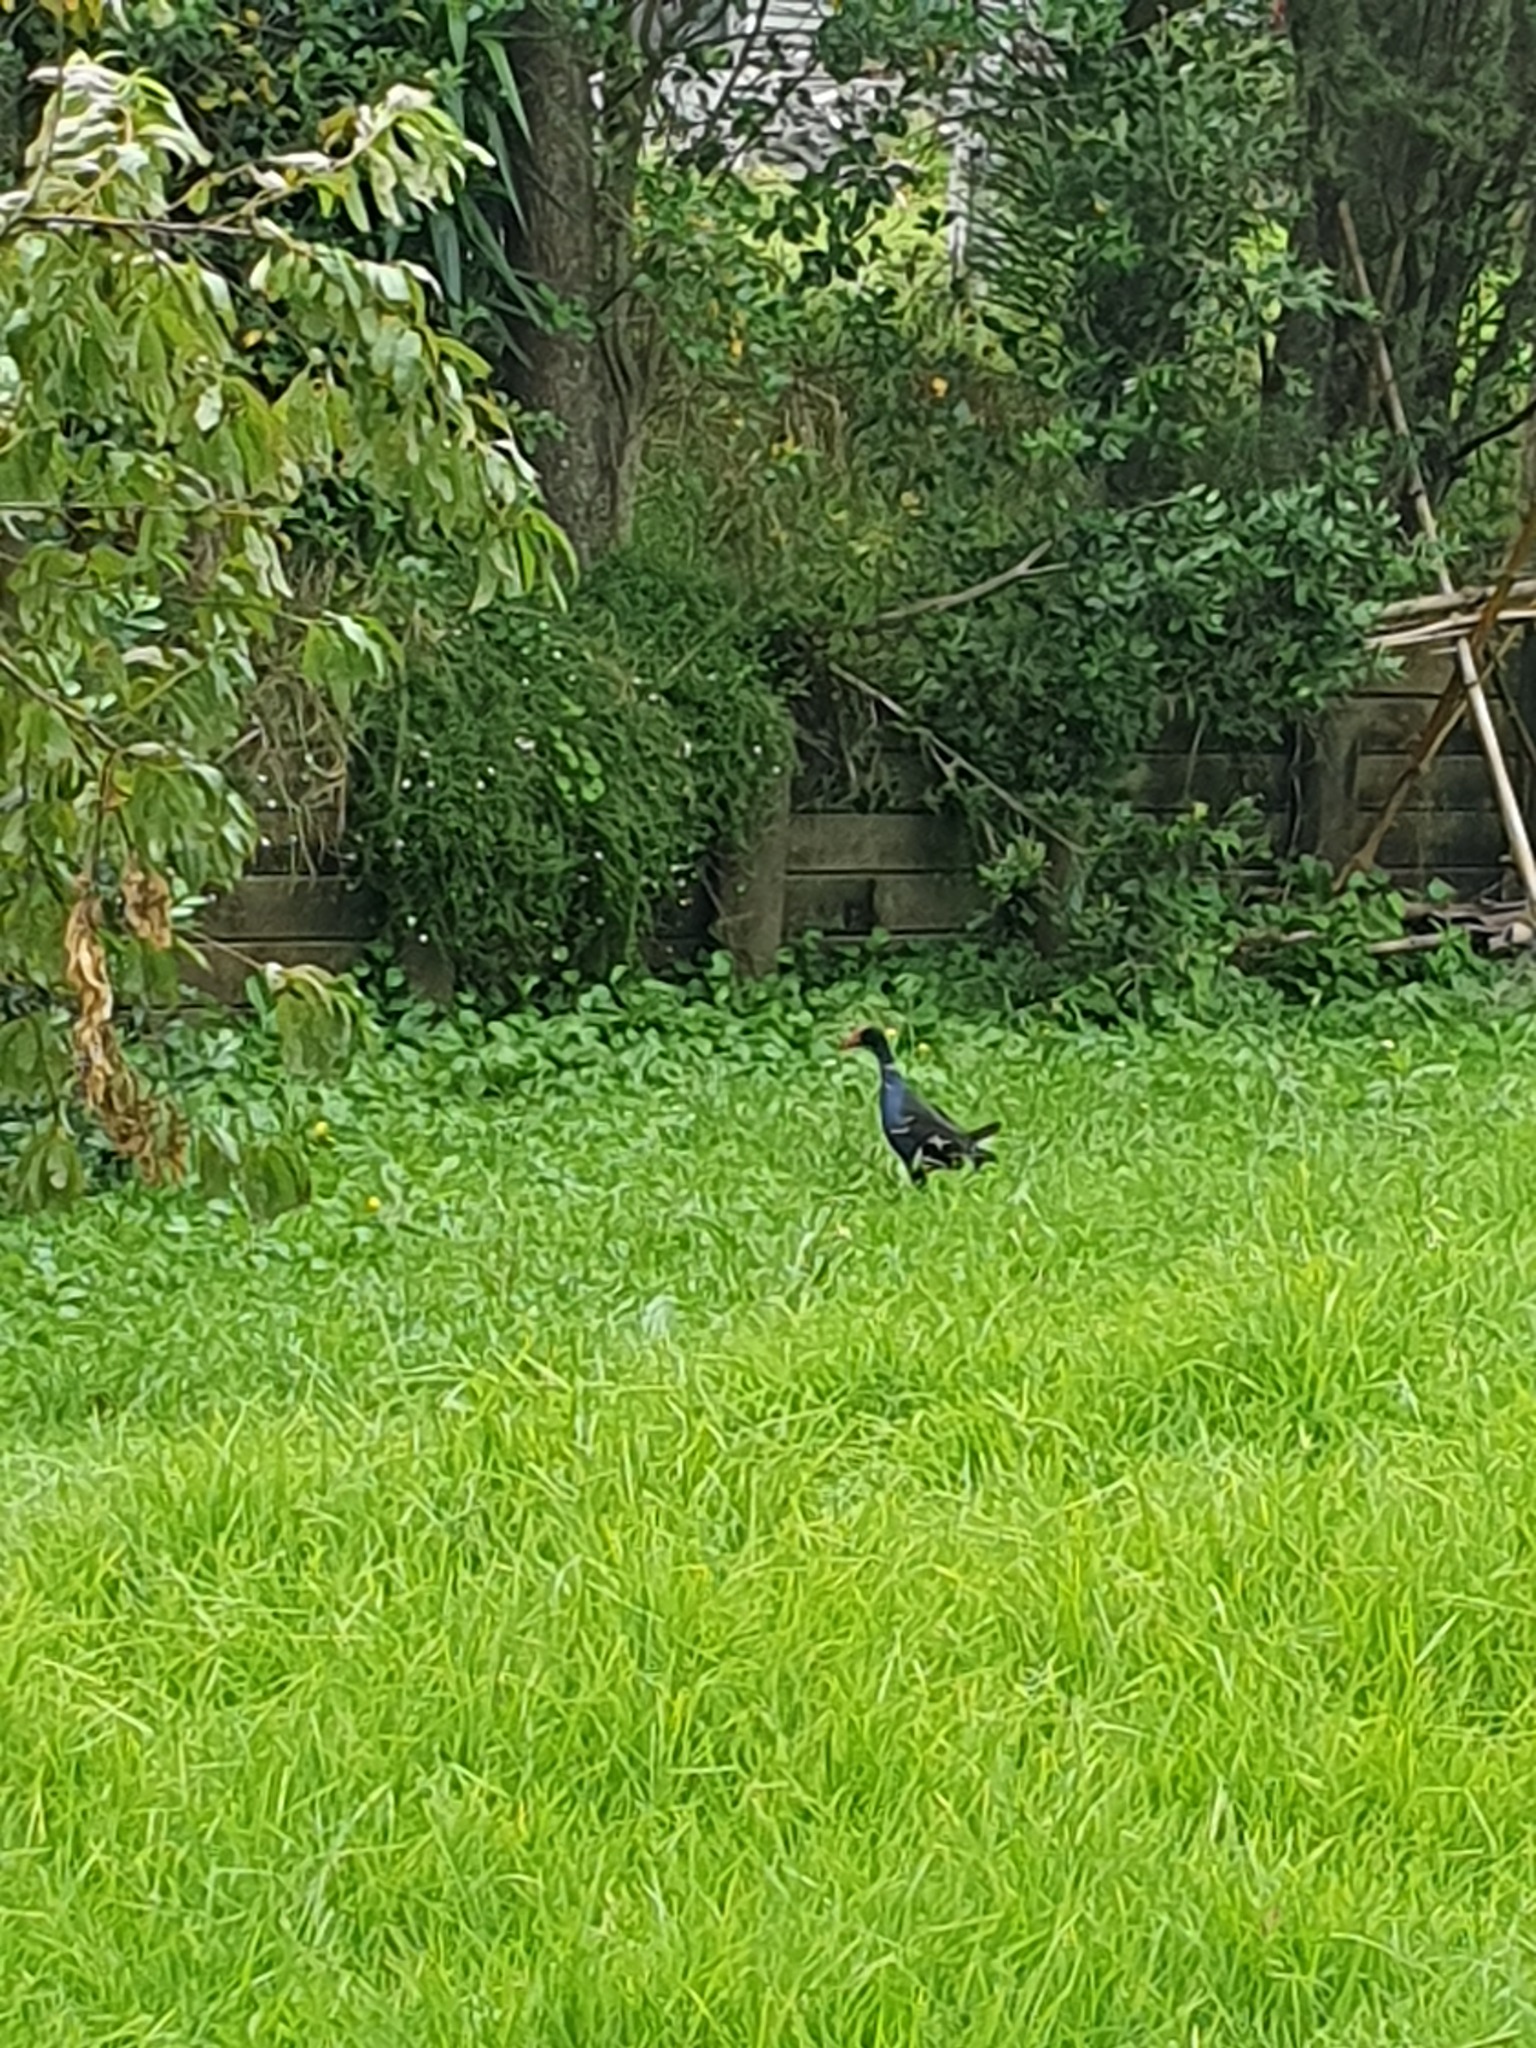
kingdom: Animalia
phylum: Chordata
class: Aves
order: Gruiformes
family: Rallidae
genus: Porphyrio
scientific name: Porphyrio melanotus
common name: Australasian swamphen
